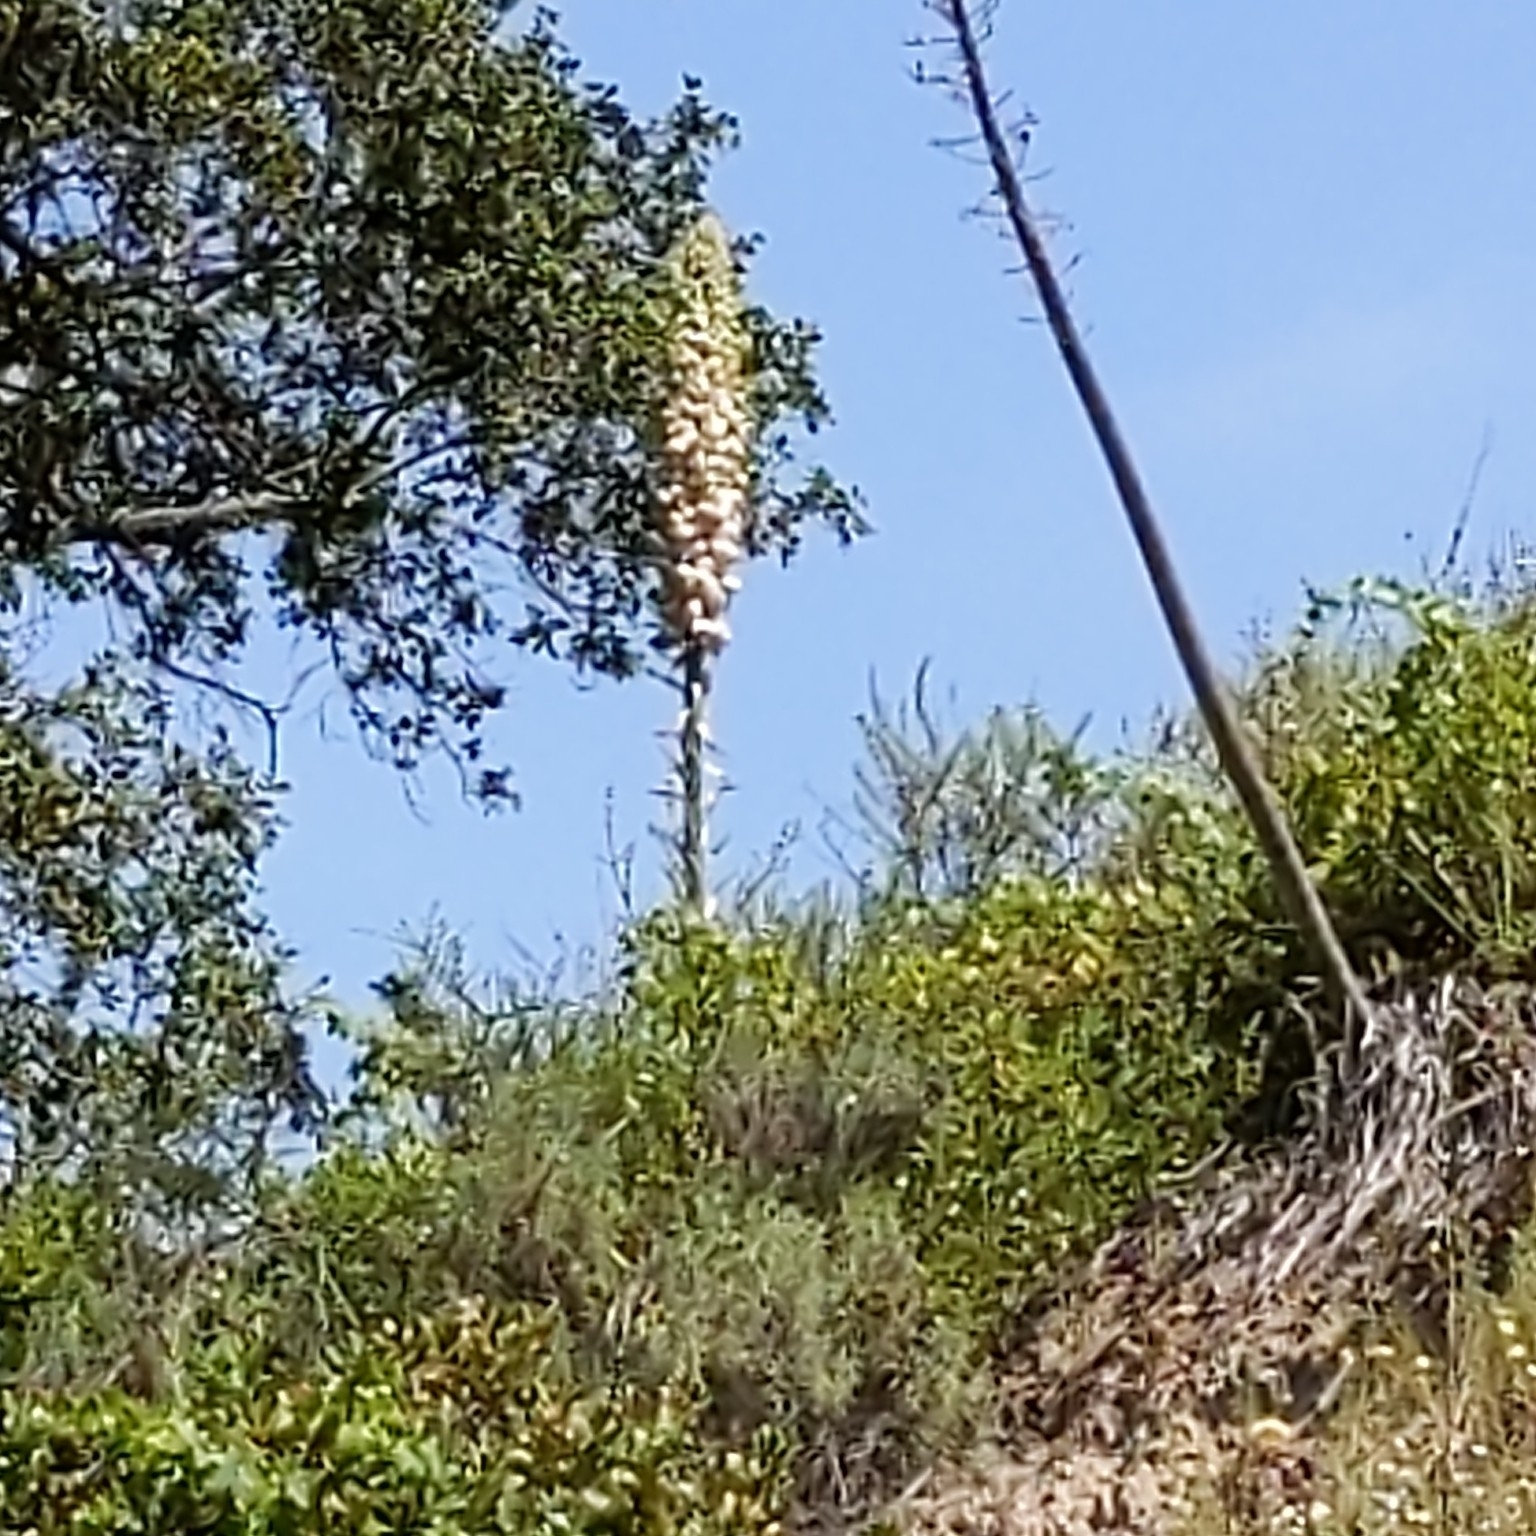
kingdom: Plantae
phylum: Tracheophyta
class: Liliopsida
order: Asparagales
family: Asparagaceae
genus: Hesperoyucca
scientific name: Hesperoyucca whipplei
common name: Our lord's-candle
